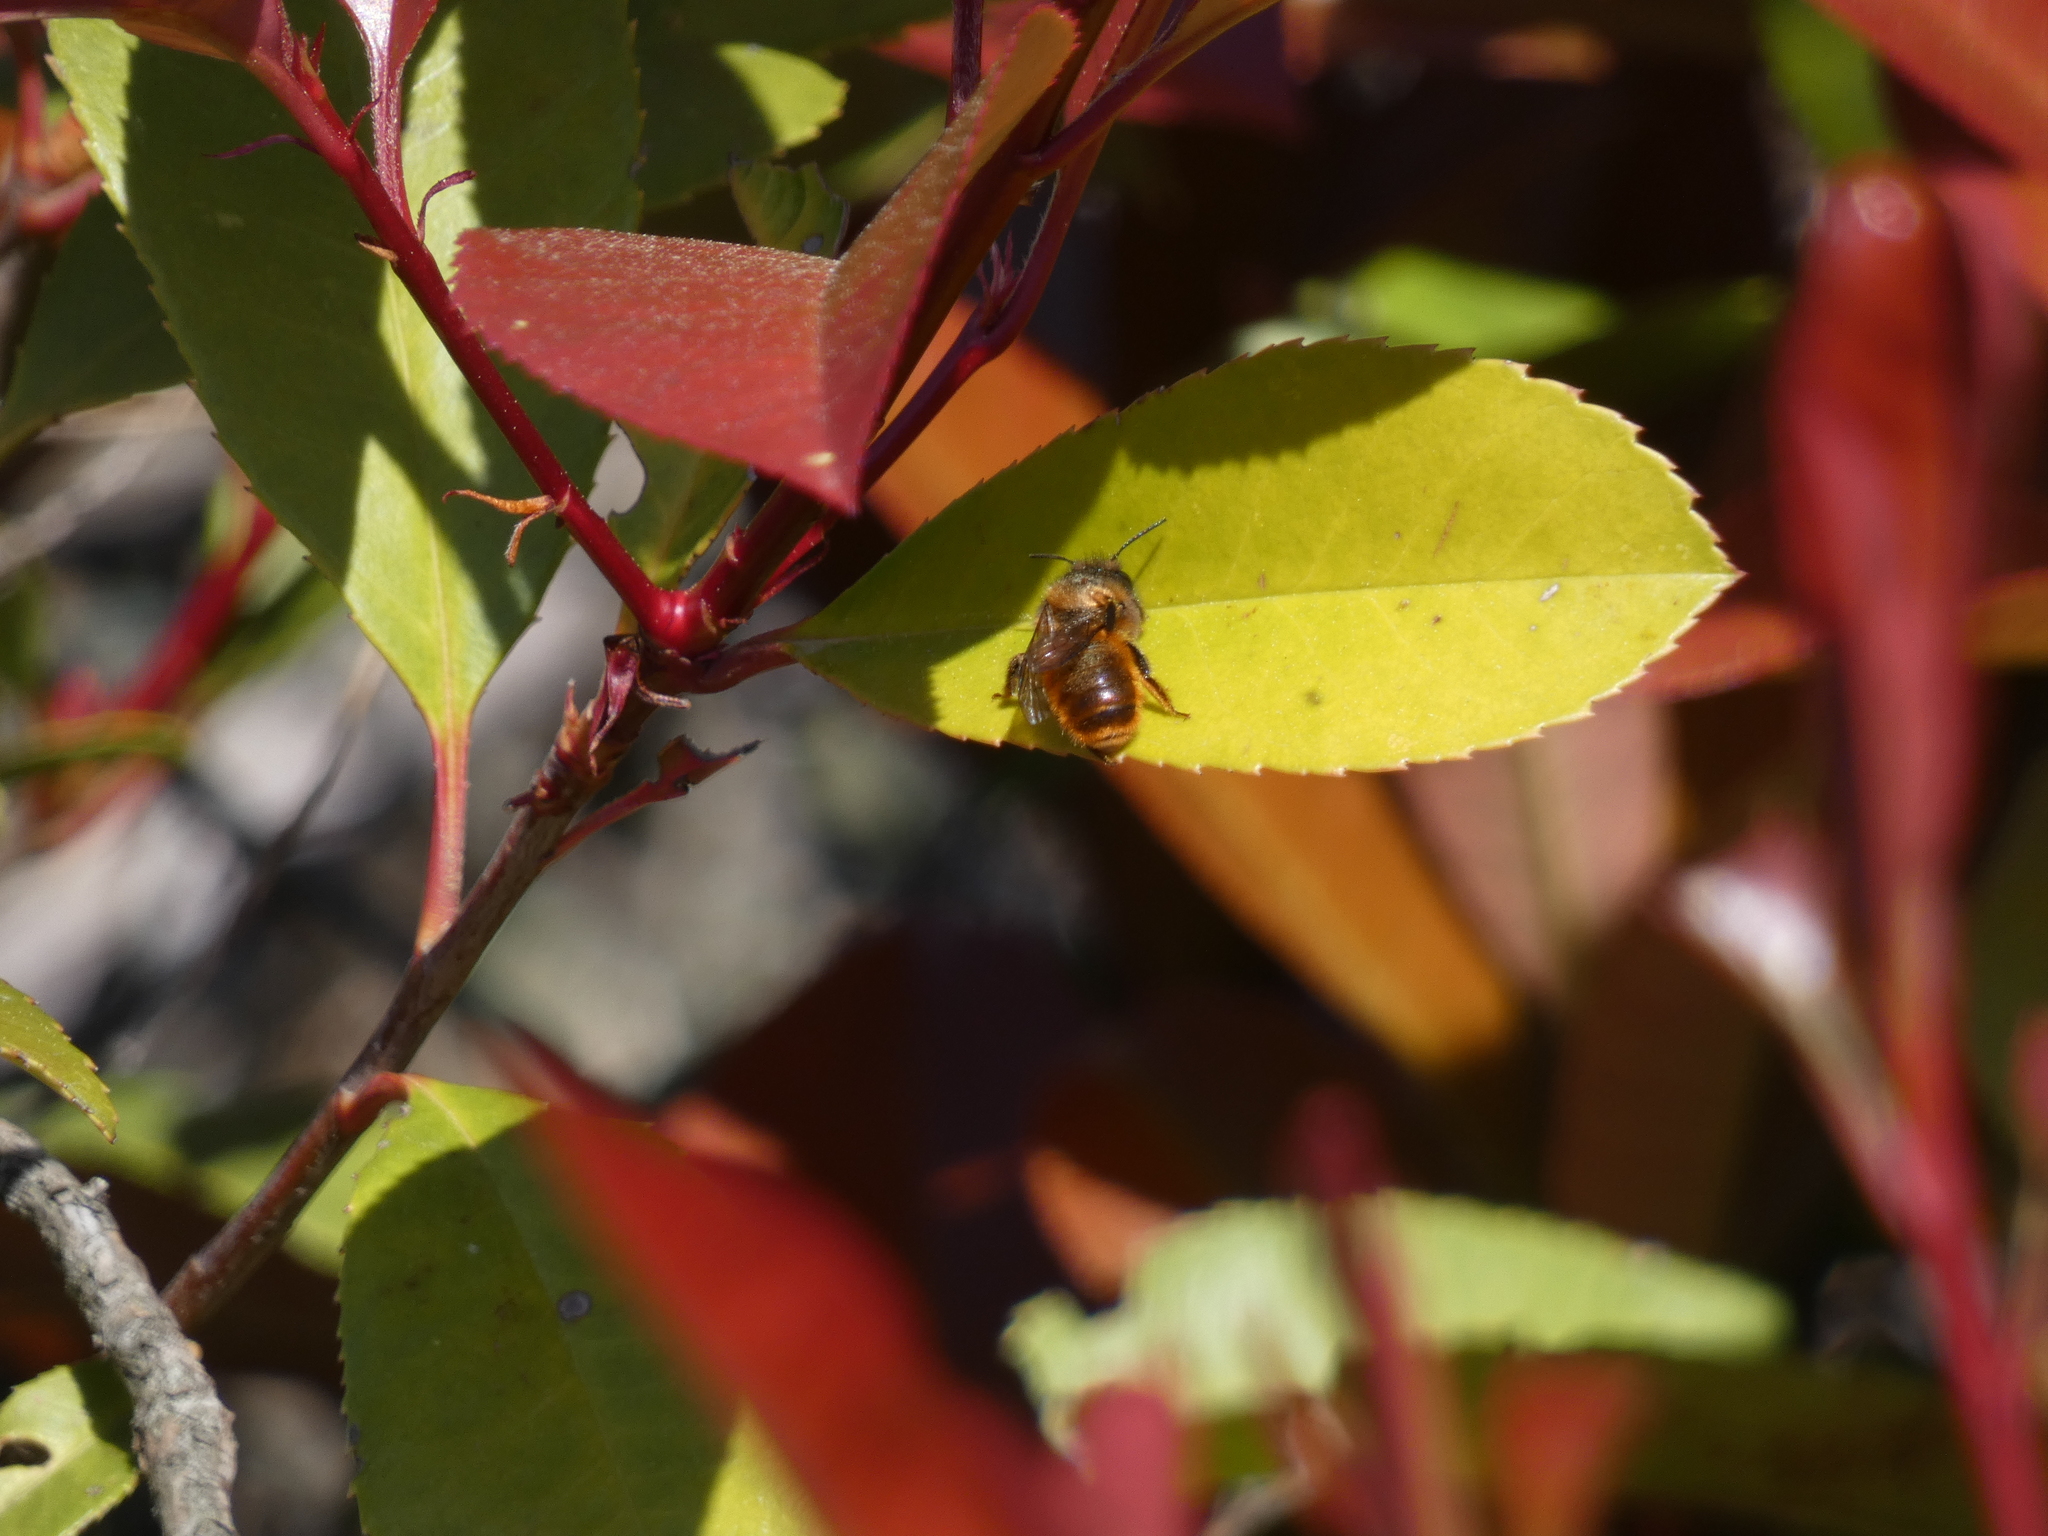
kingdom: Animalia
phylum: Arthropoda
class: Insecta
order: Hymenoptera
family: Megachilidae
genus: Osmia
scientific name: Osmia bicornis
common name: Red mason bee
